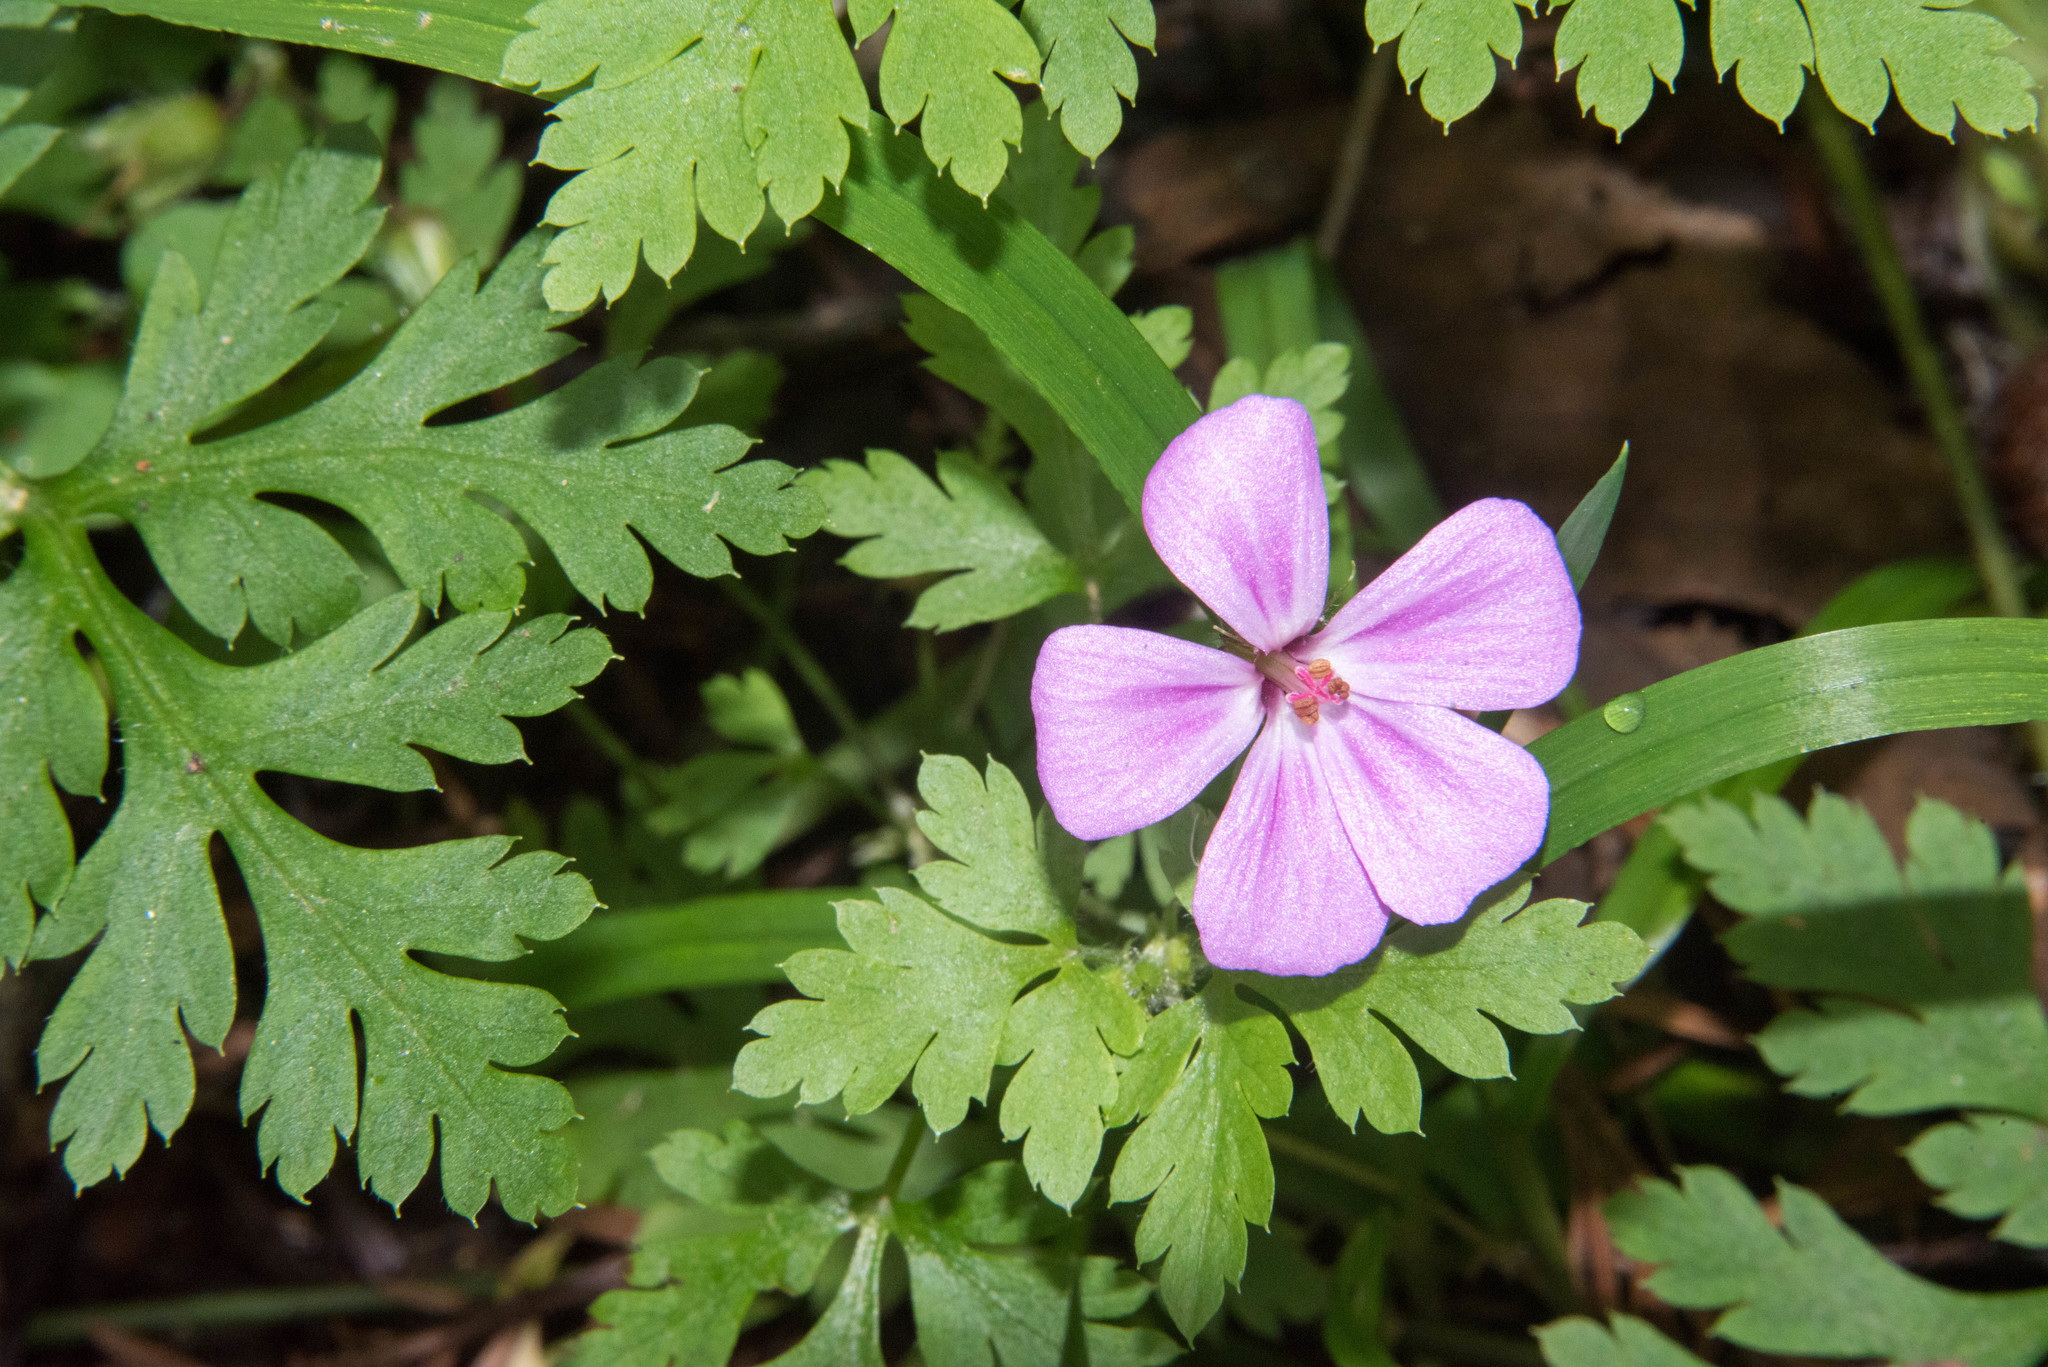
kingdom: Plantae
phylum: Tracheophyta
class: Magnoliopsida
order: Geraniales
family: Geraniaceae
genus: Geranium
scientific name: Geranium yeoi
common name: Greater herb robert
